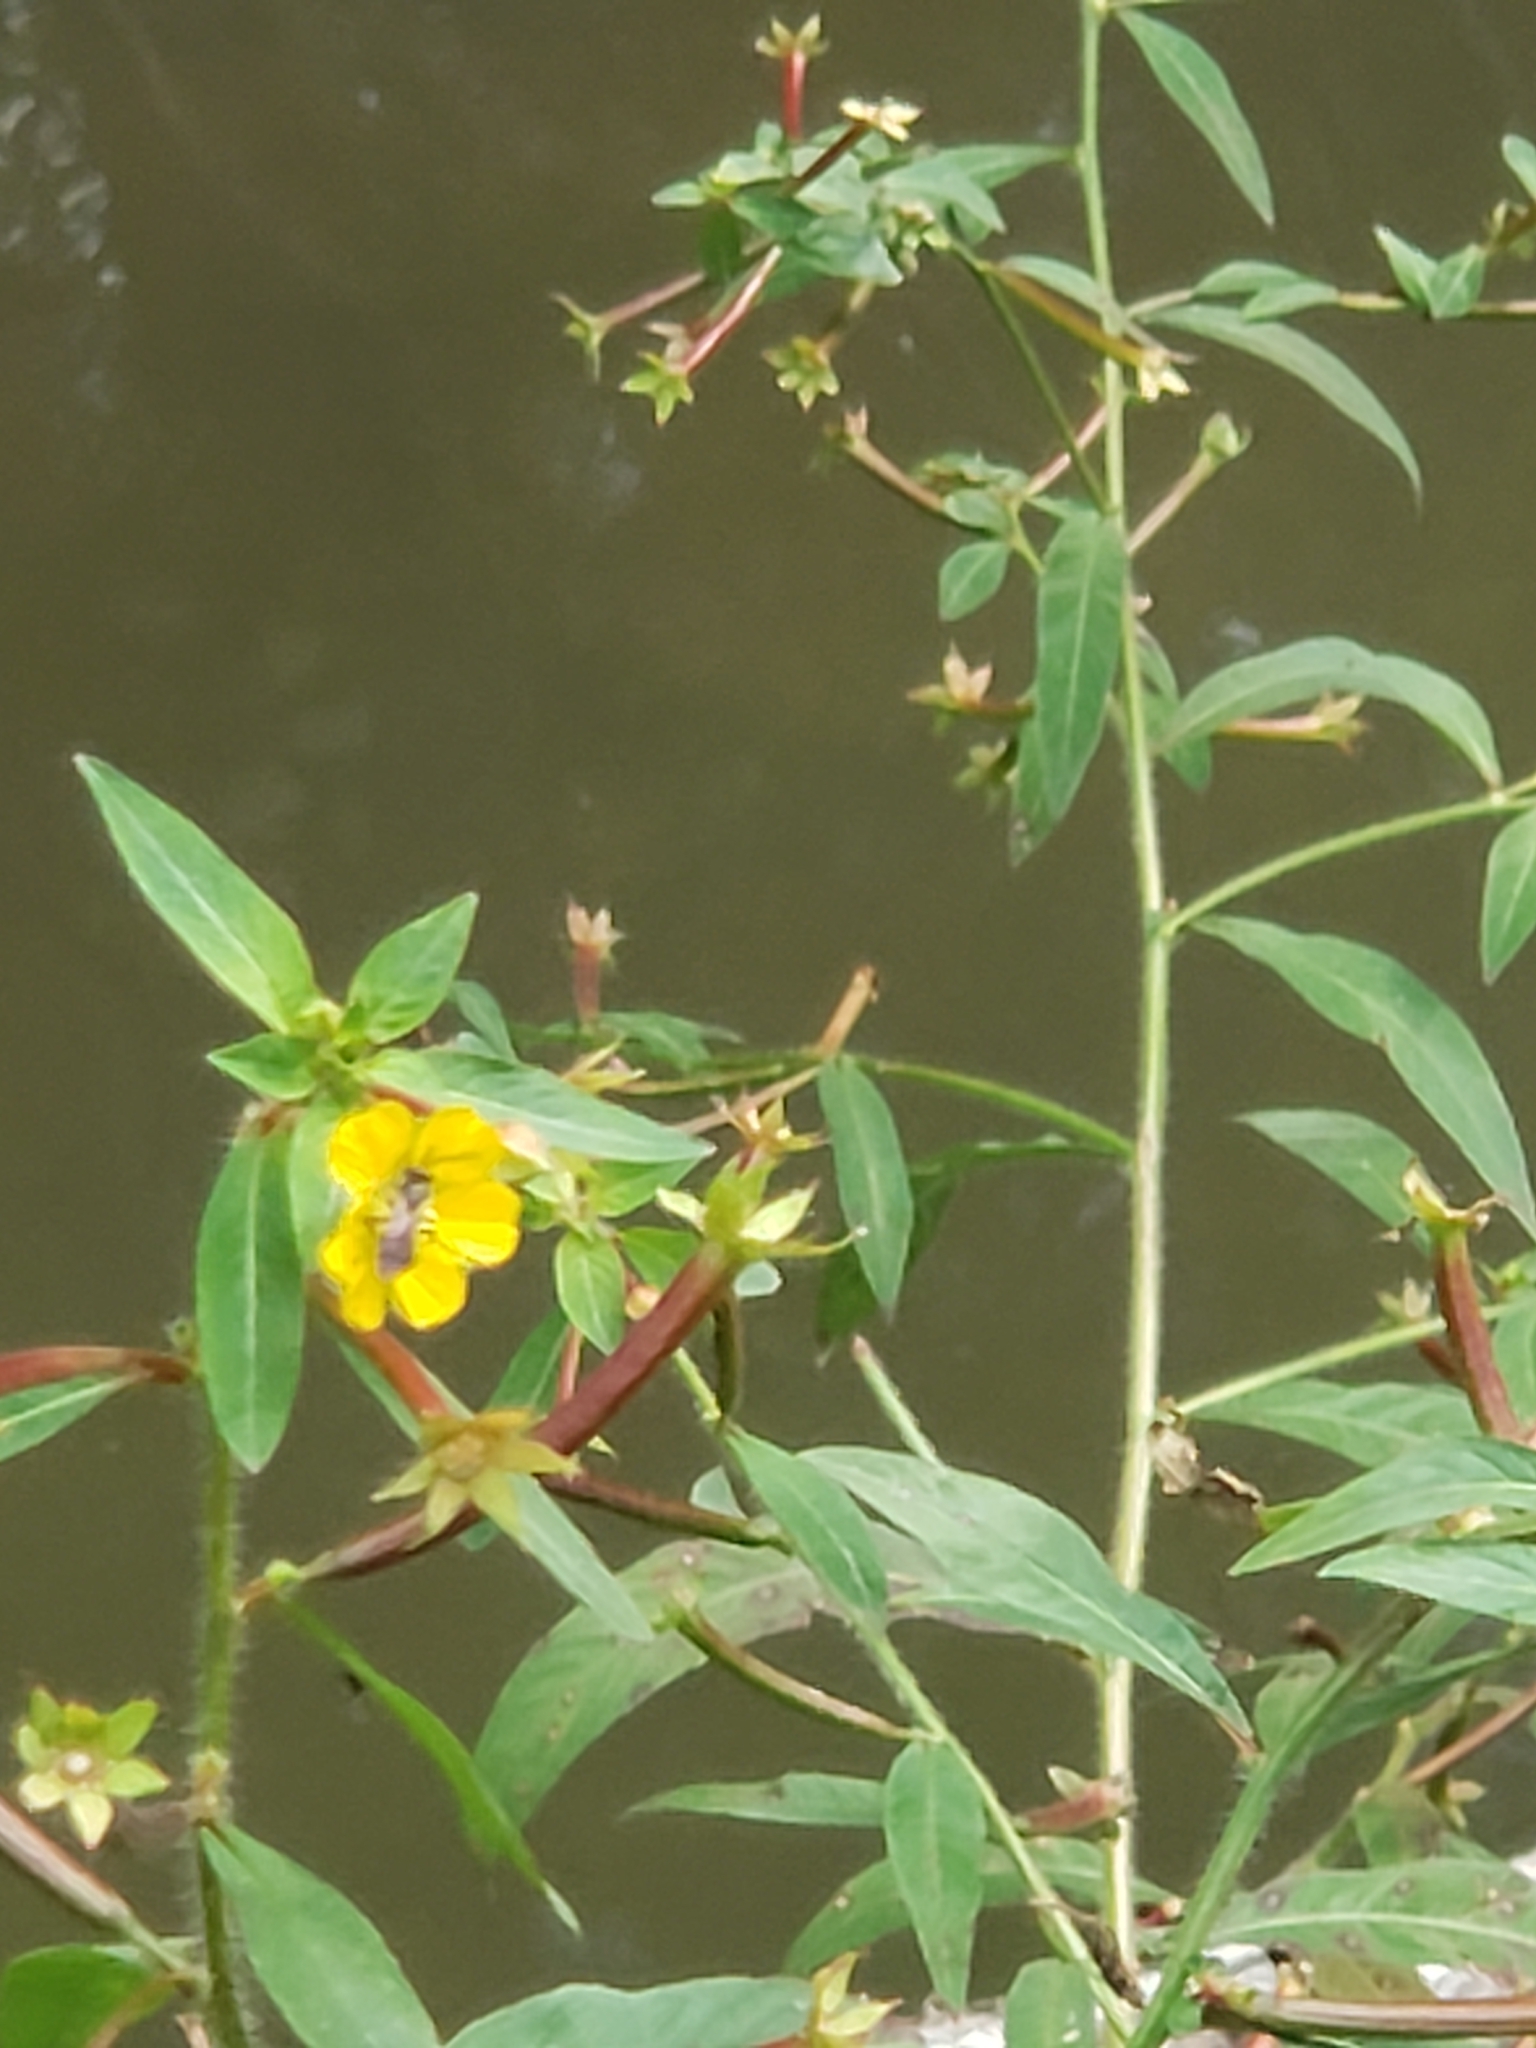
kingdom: Plantae
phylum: Tracheophyta
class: Magnoliopsida
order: Myrtales
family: Onagraceae
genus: Ludwigia
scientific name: Ludwigia leptocarpa
